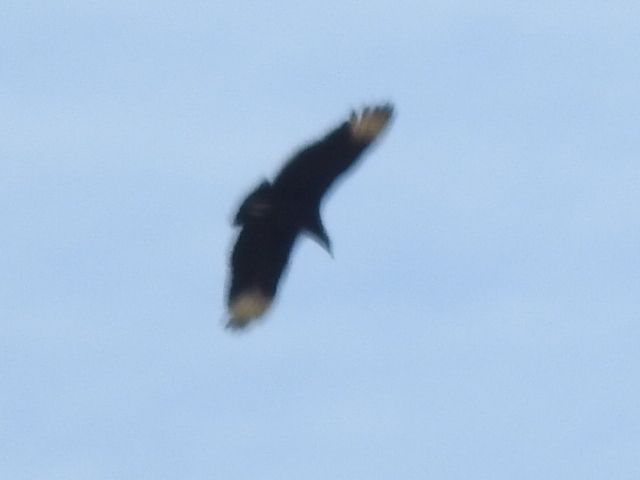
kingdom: Animalia
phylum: Chordata
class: Aves
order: Accipitriformes
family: Cathartidae
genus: Coragyps
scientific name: Coragyps atratus
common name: Black vulture
